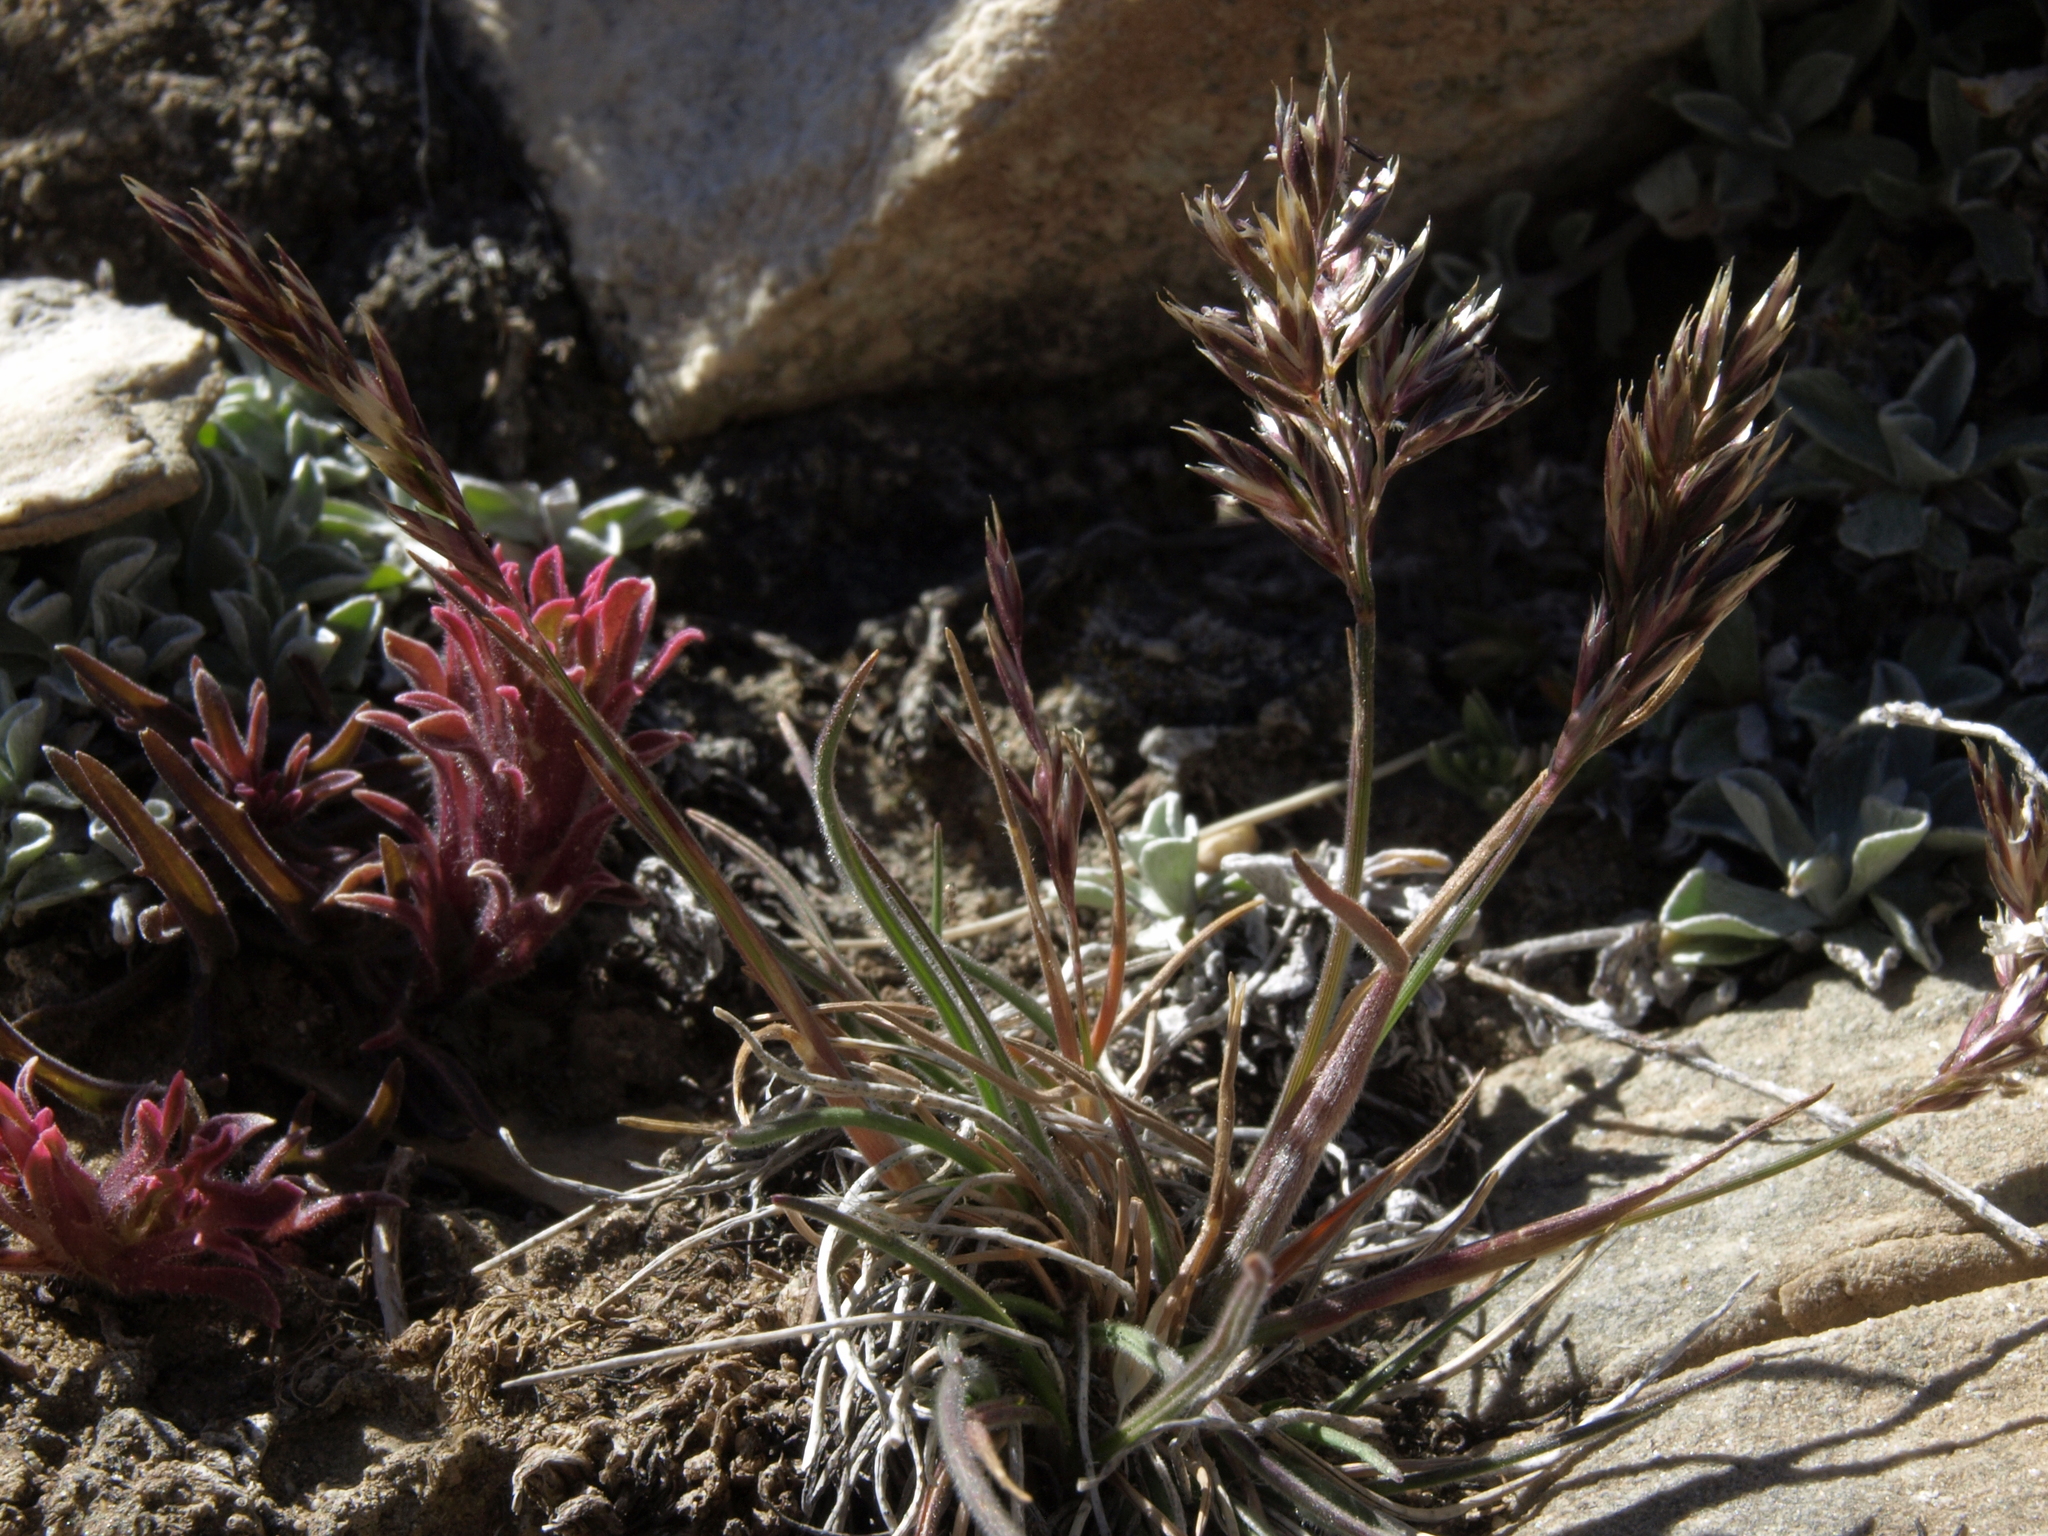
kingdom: Plantae
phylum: Tracheophyta
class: Liliopsida
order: Poales
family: Poaceae
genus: Koeleria
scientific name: Koeleria macrantha
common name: Crested hair-grass
